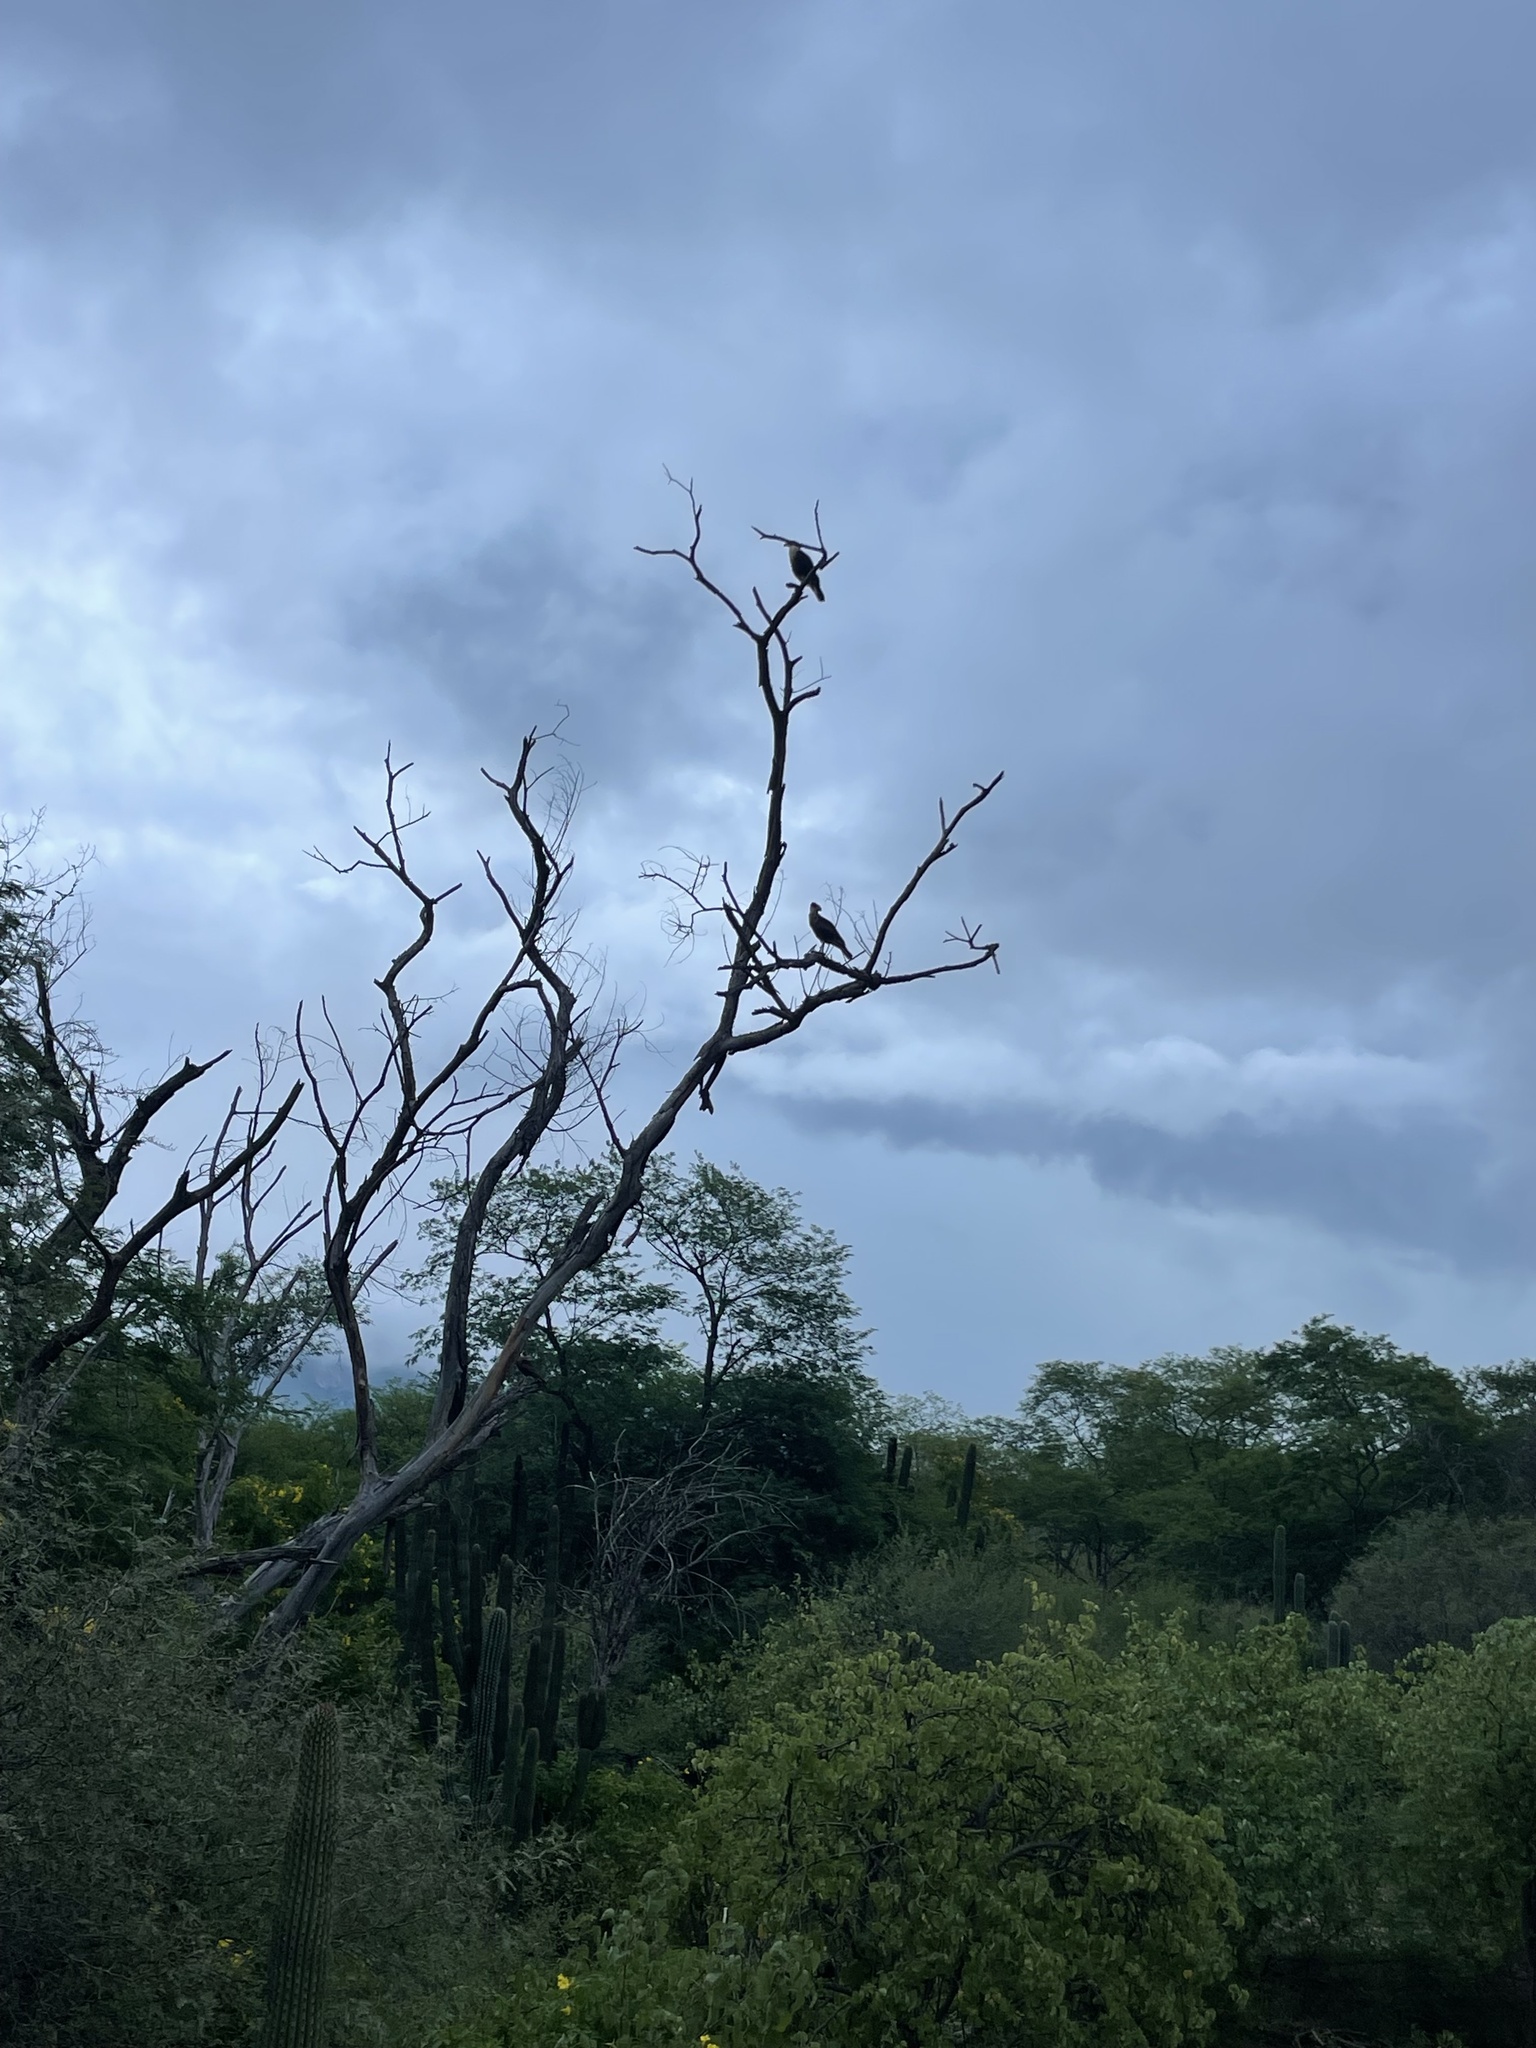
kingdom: Animalia
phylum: Chordata
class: Aves
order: Falconiformes
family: Falconidae
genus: Caracara
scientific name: Caracara plancus
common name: Southern caracara
